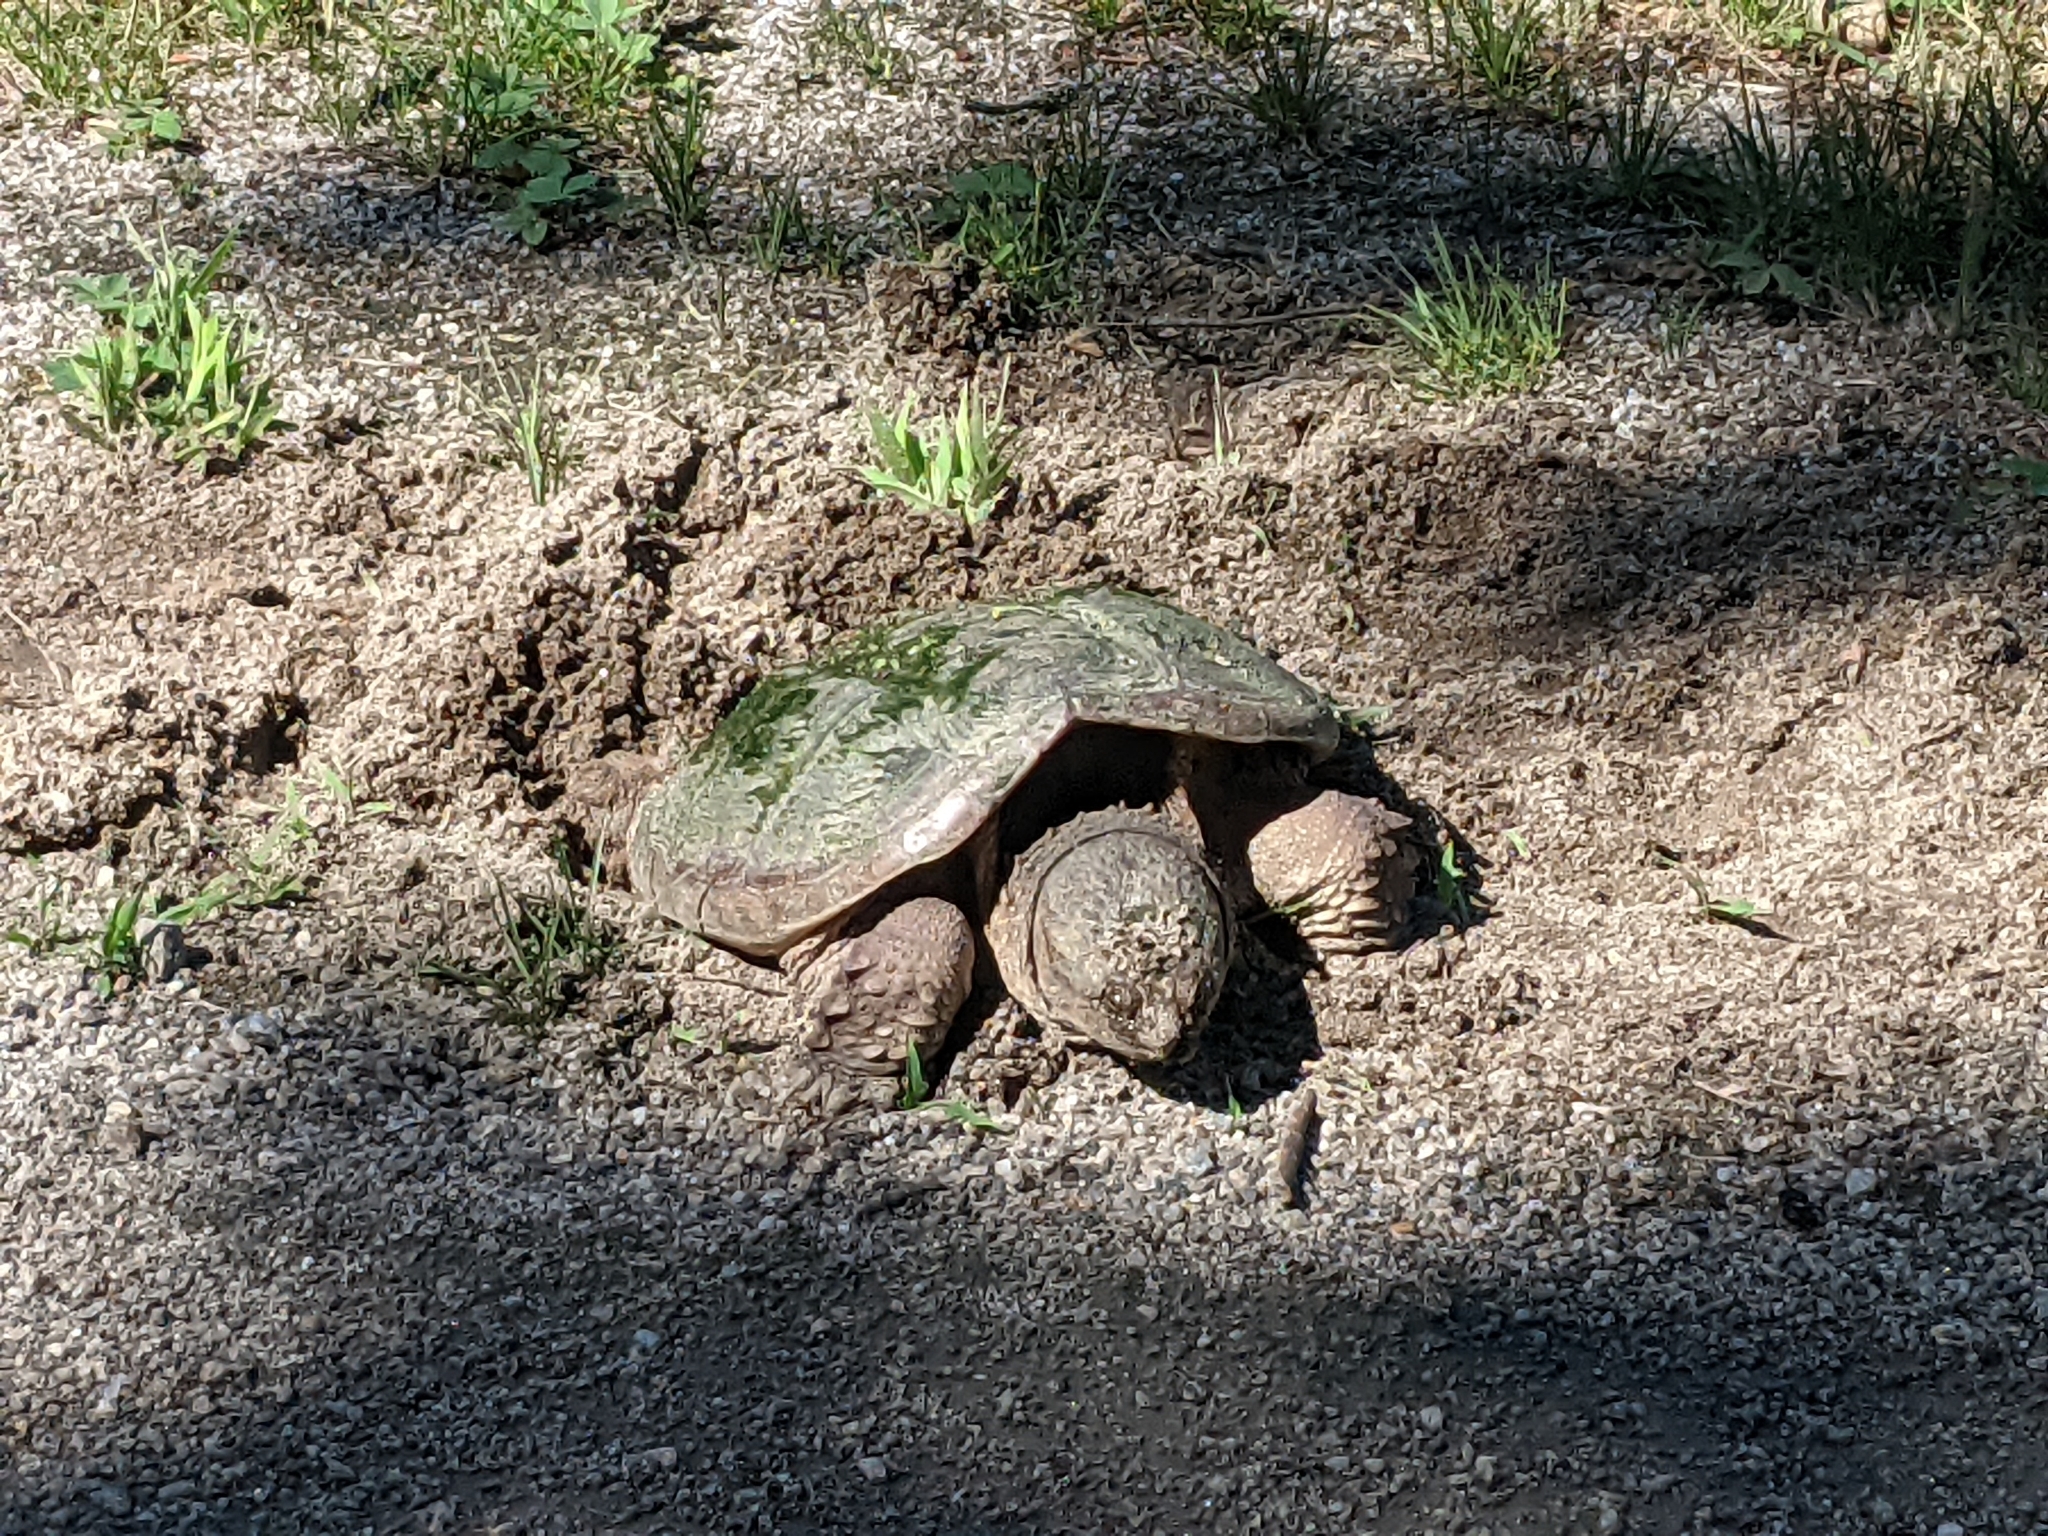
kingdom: Animalia
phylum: Chordata
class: Testudines
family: Chelydridae
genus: Chelydra
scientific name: Chelydra serpentina
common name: Common snapping turtle
